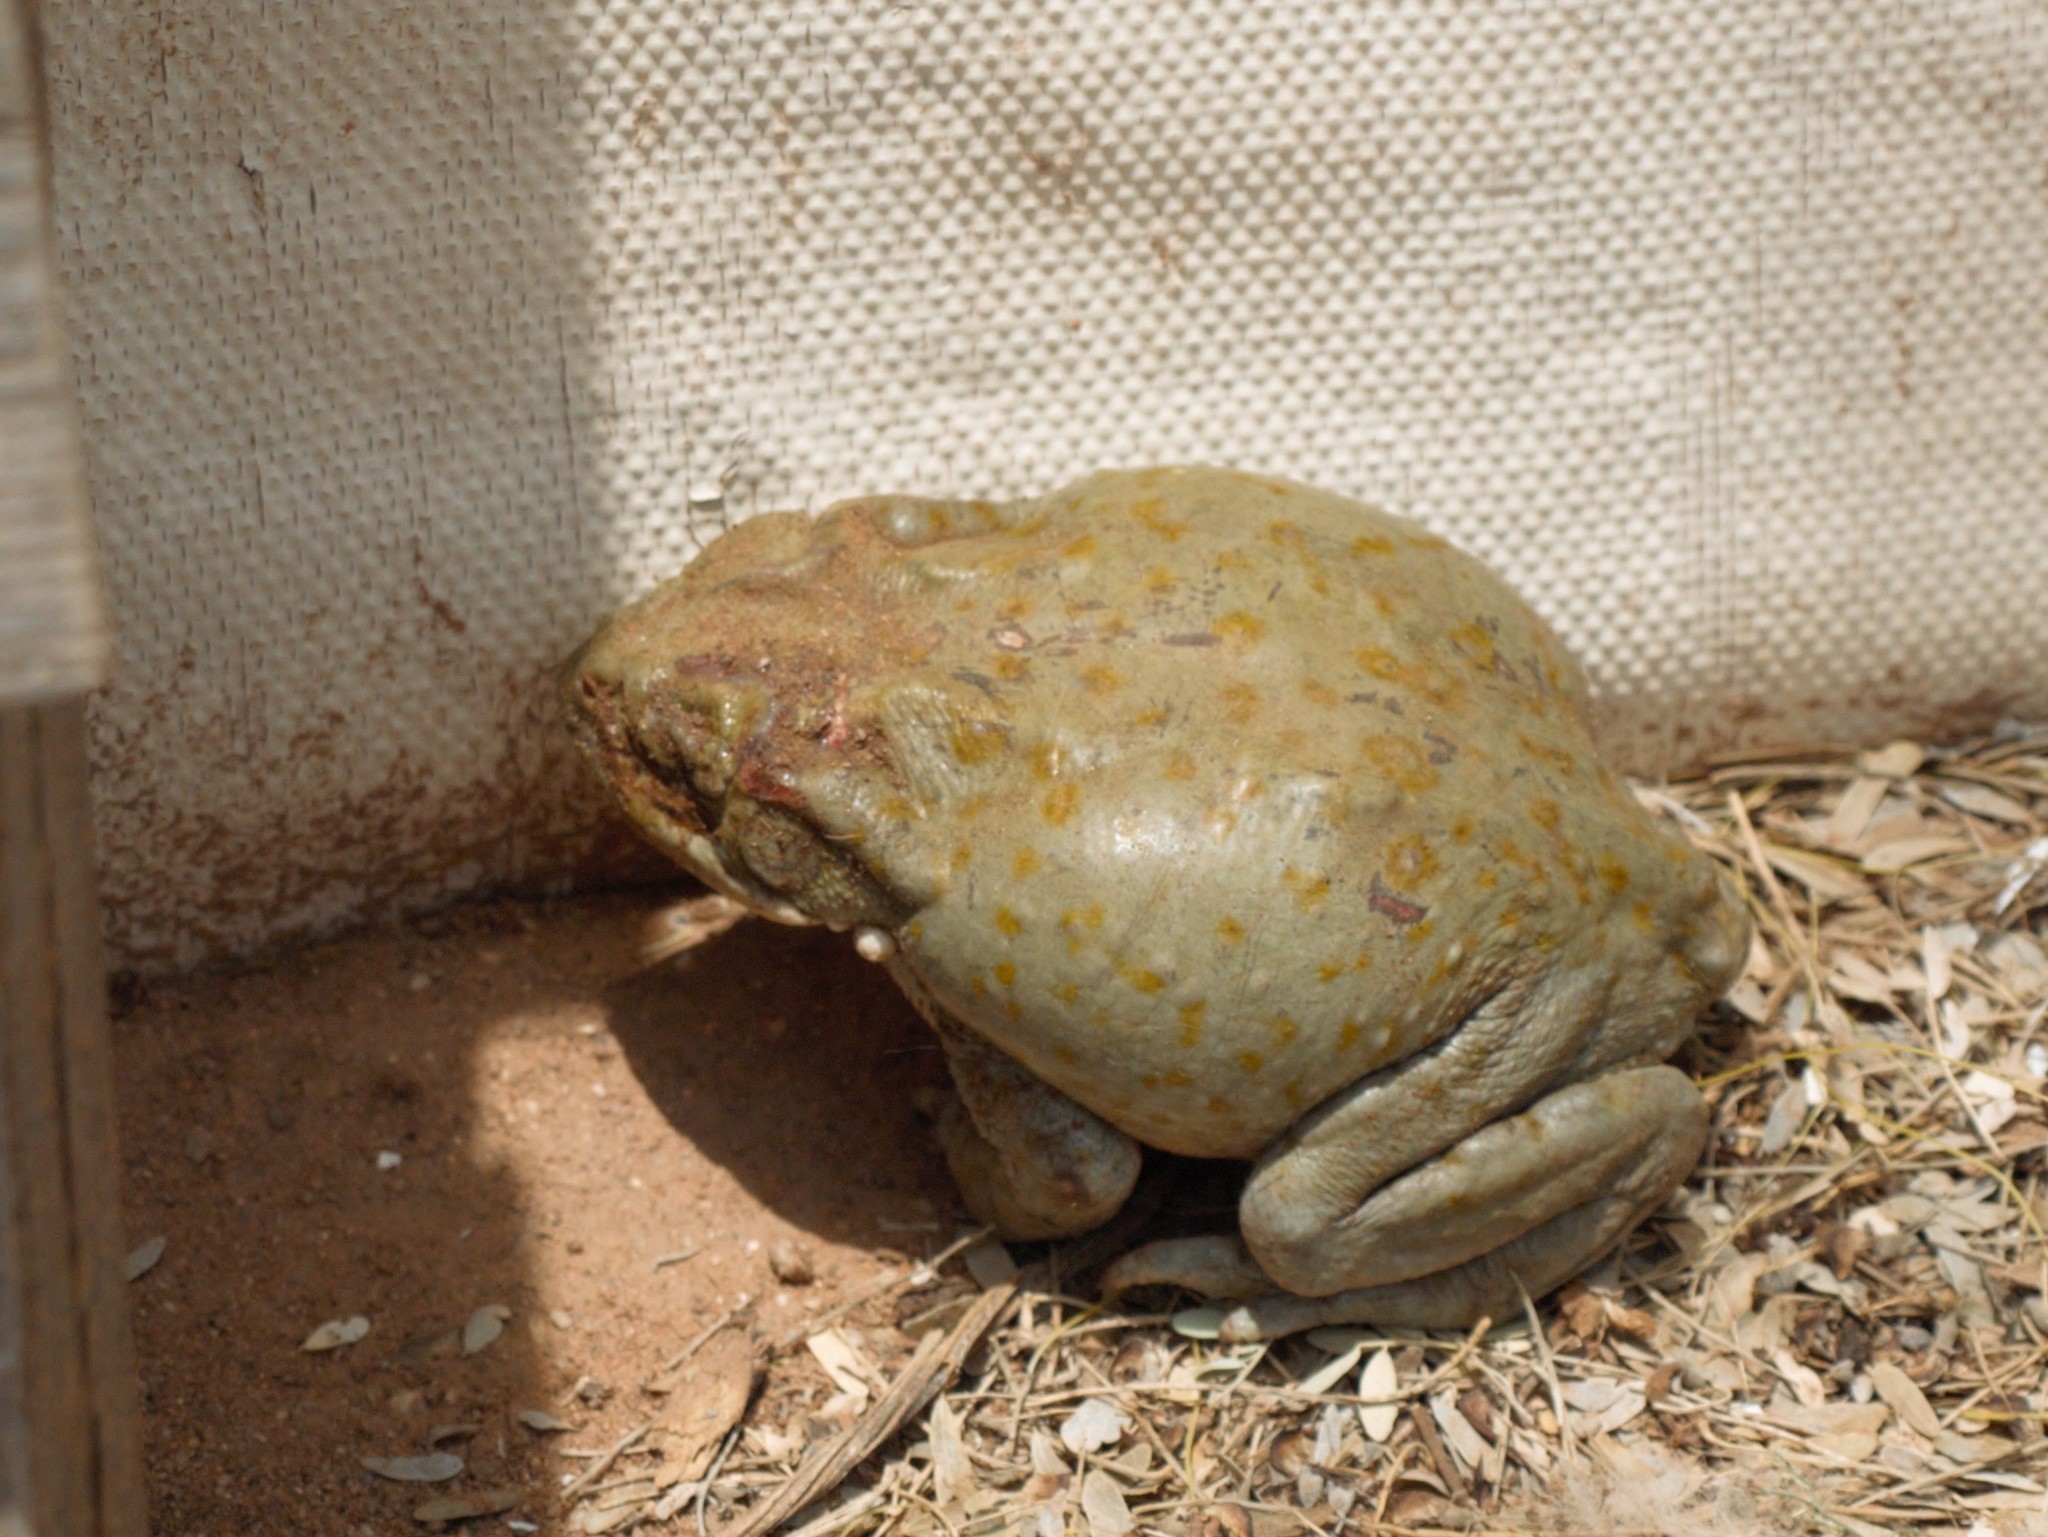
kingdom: Animalia
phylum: Chordata
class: Amphibia
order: Anura
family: Bufonidae
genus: Incilius
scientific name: Incilius alvarius
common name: Sonoran desert toad
